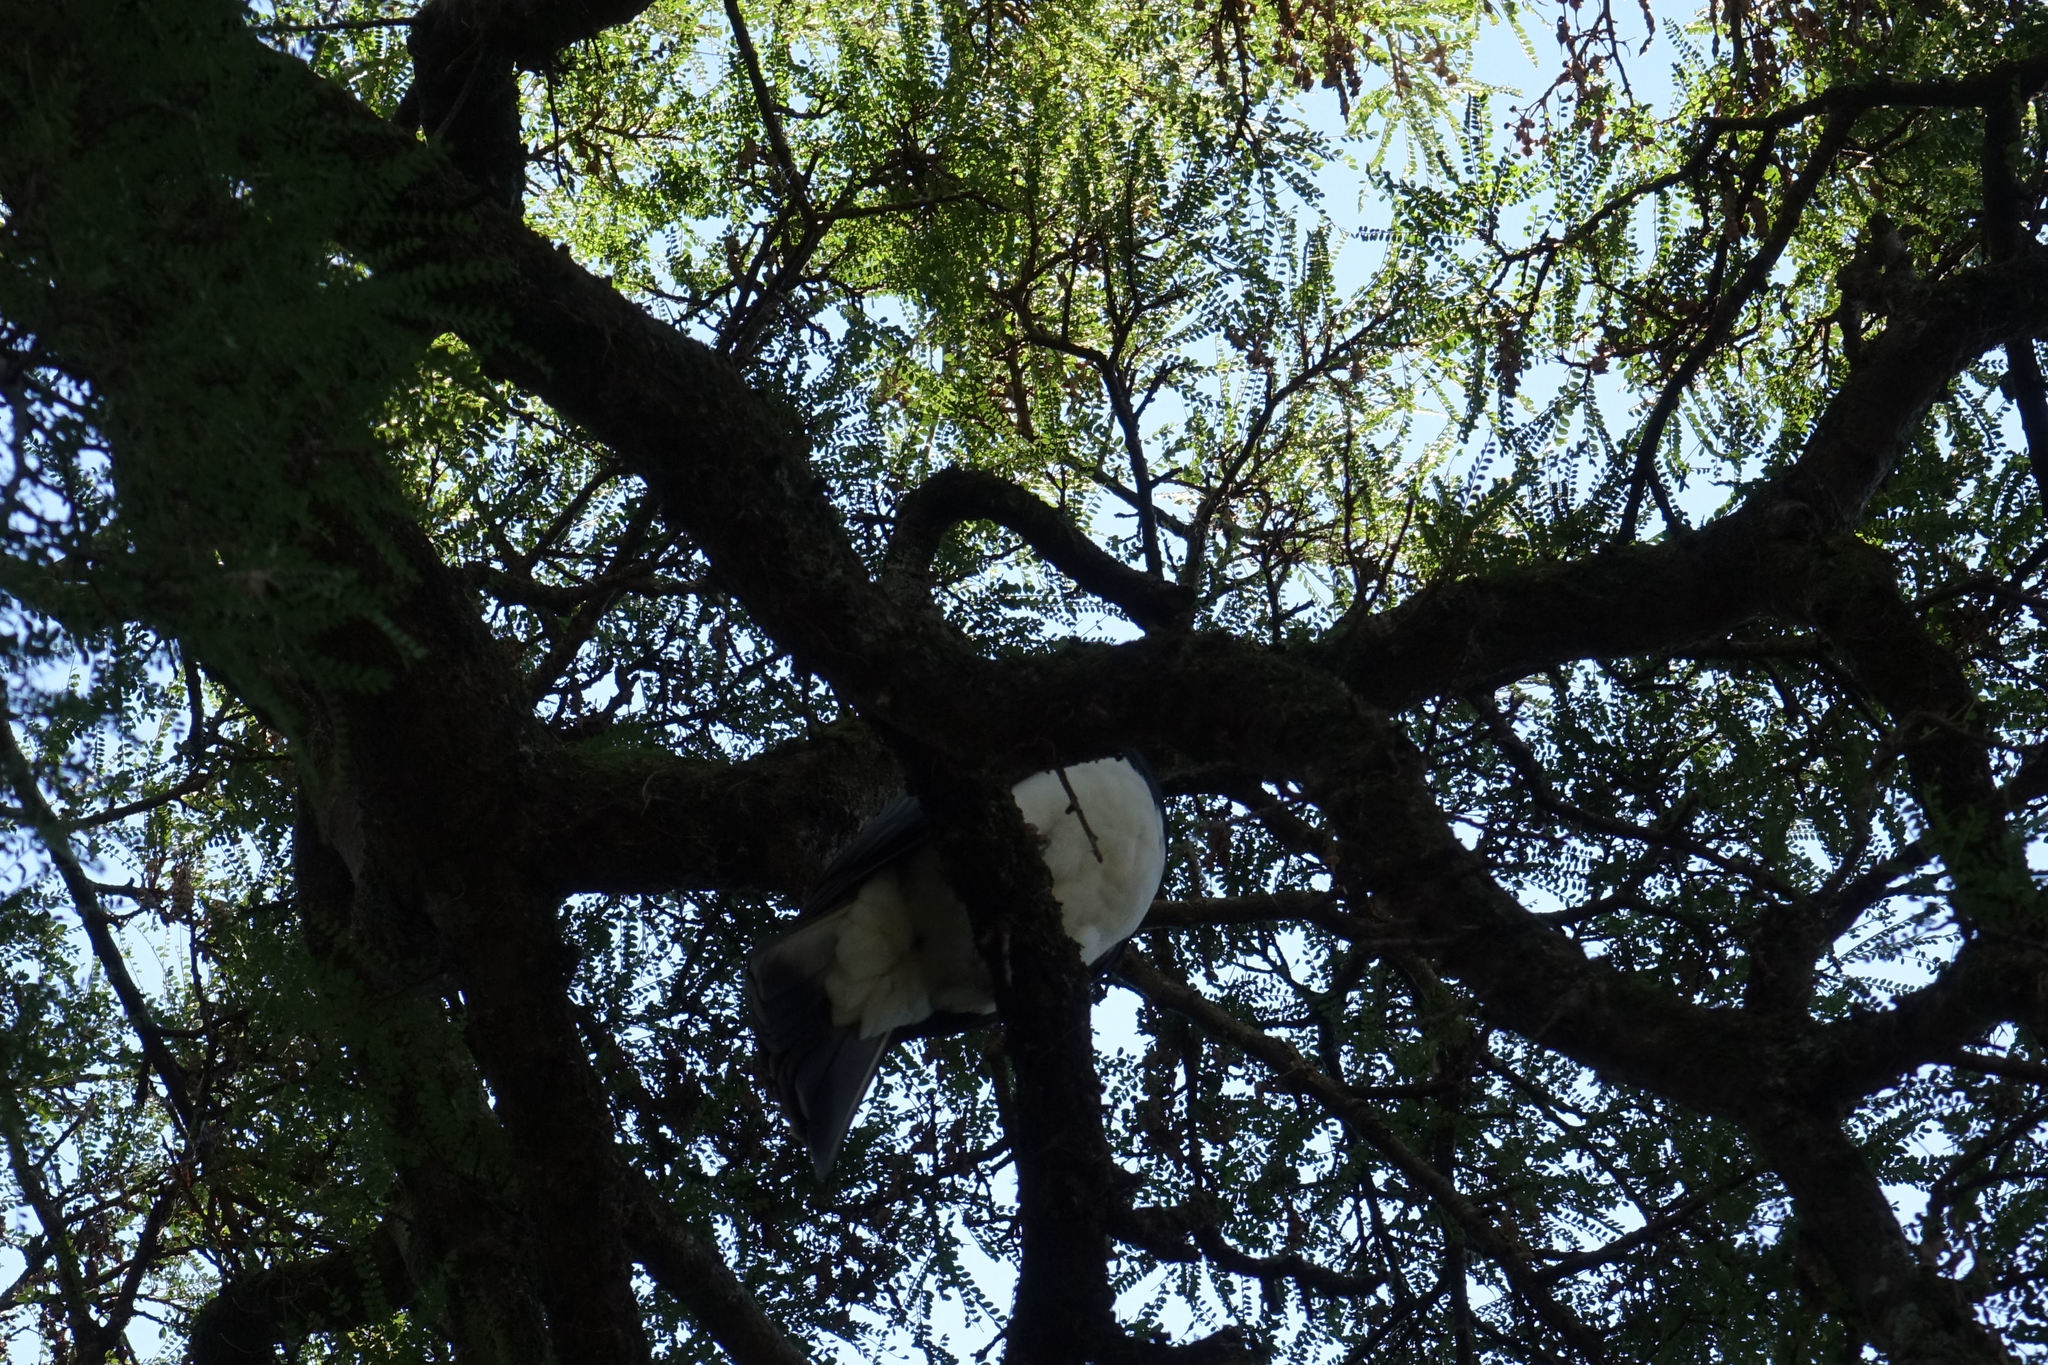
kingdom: Animalia
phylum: Chordata
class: Aves
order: Columbiformes
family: Columbidae
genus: Hemiphaga
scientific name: Hemiphaga novaeseelandiae
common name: New zealand pigeon
